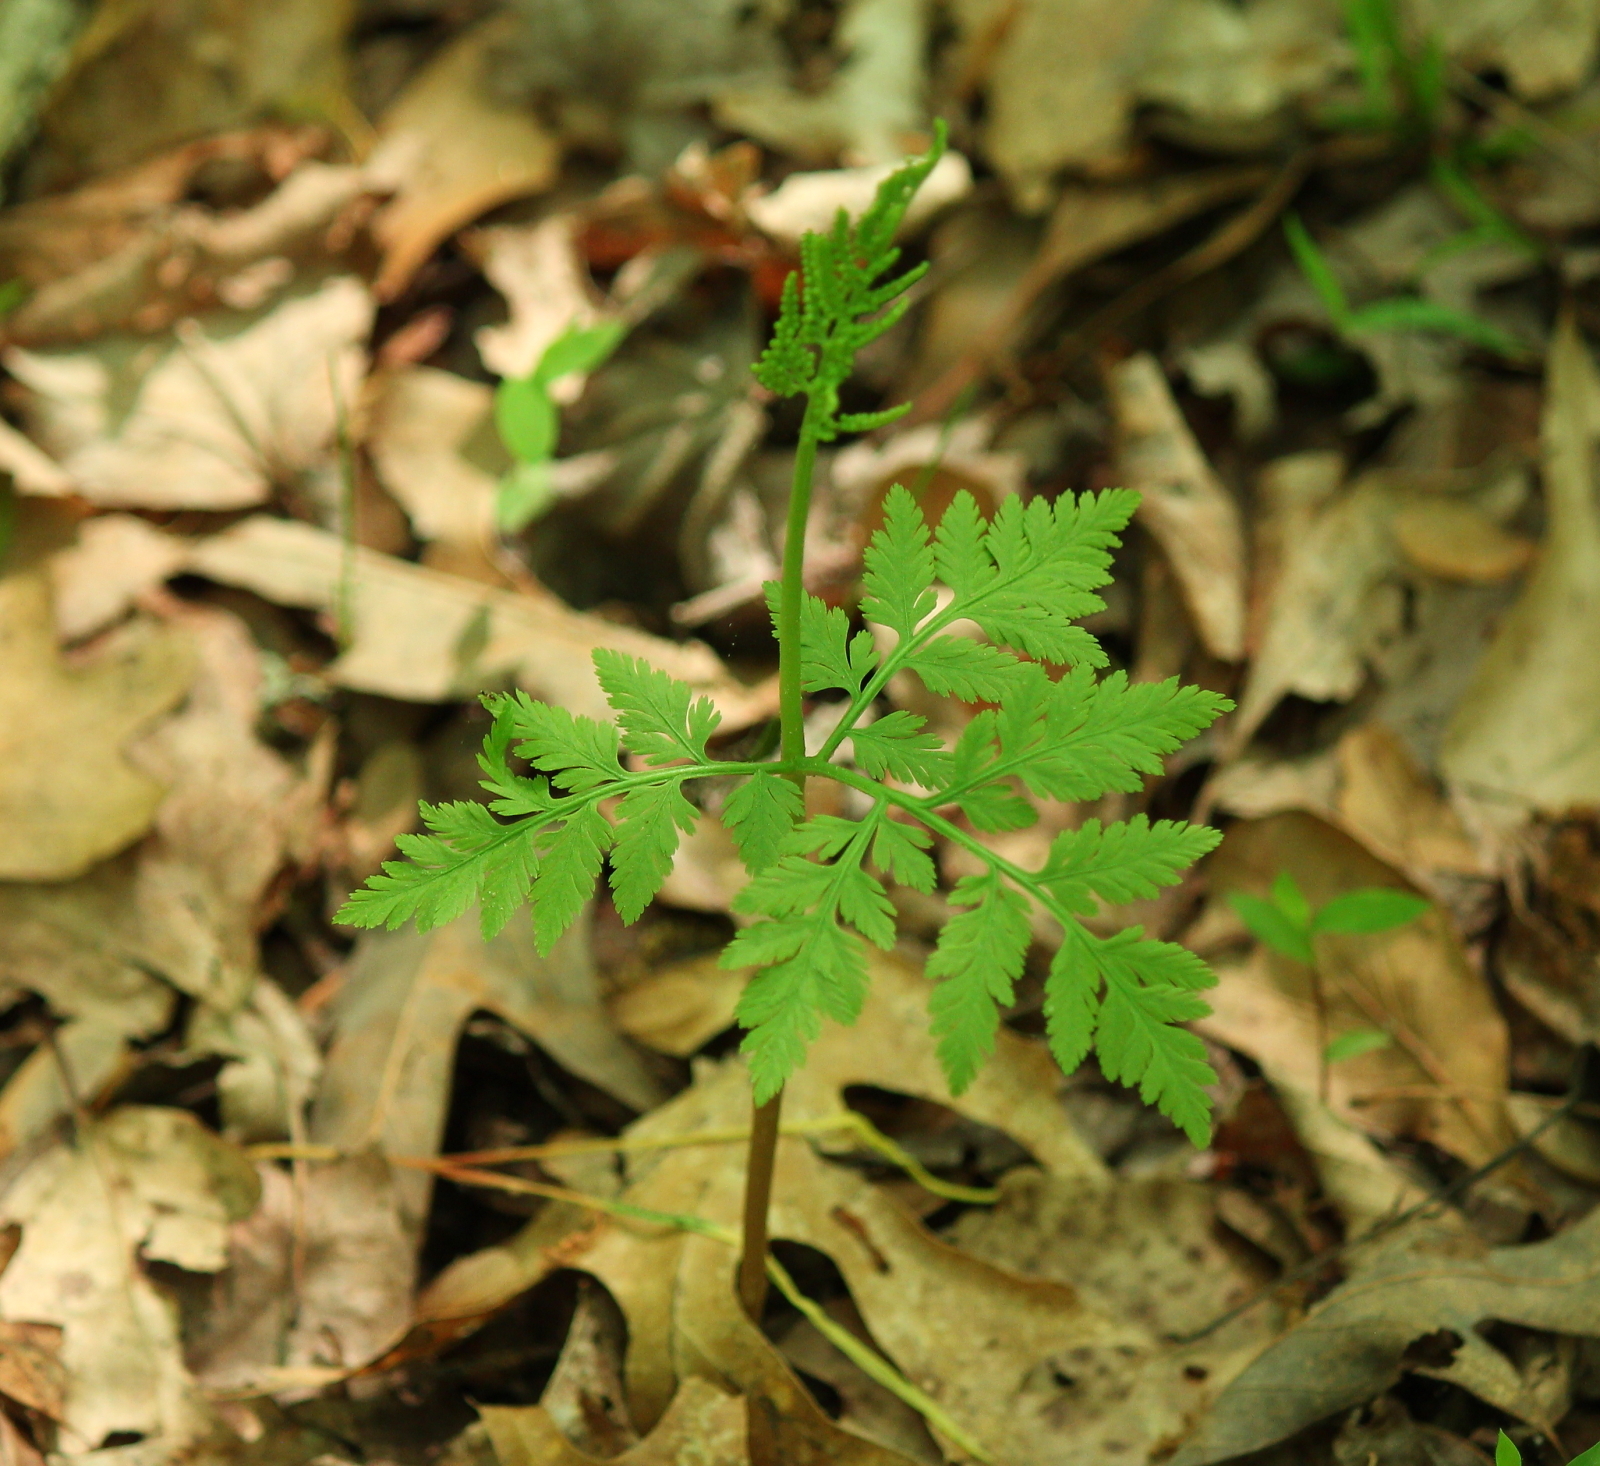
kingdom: Plantae
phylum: Tracheophyta
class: Polypodiopsida
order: Ophioglossales
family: Ophioglossaceae
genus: Botrypus
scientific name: Botrypus virginianus
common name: Common grapefern
